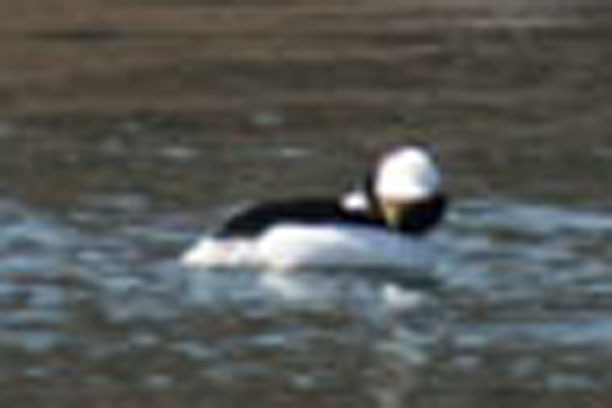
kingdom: Animalia
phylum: Chordata
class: Aves
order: Anseriformes
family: Anatidae
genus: Bucephala
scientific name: Bucephala albeola
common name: Bufflehead
